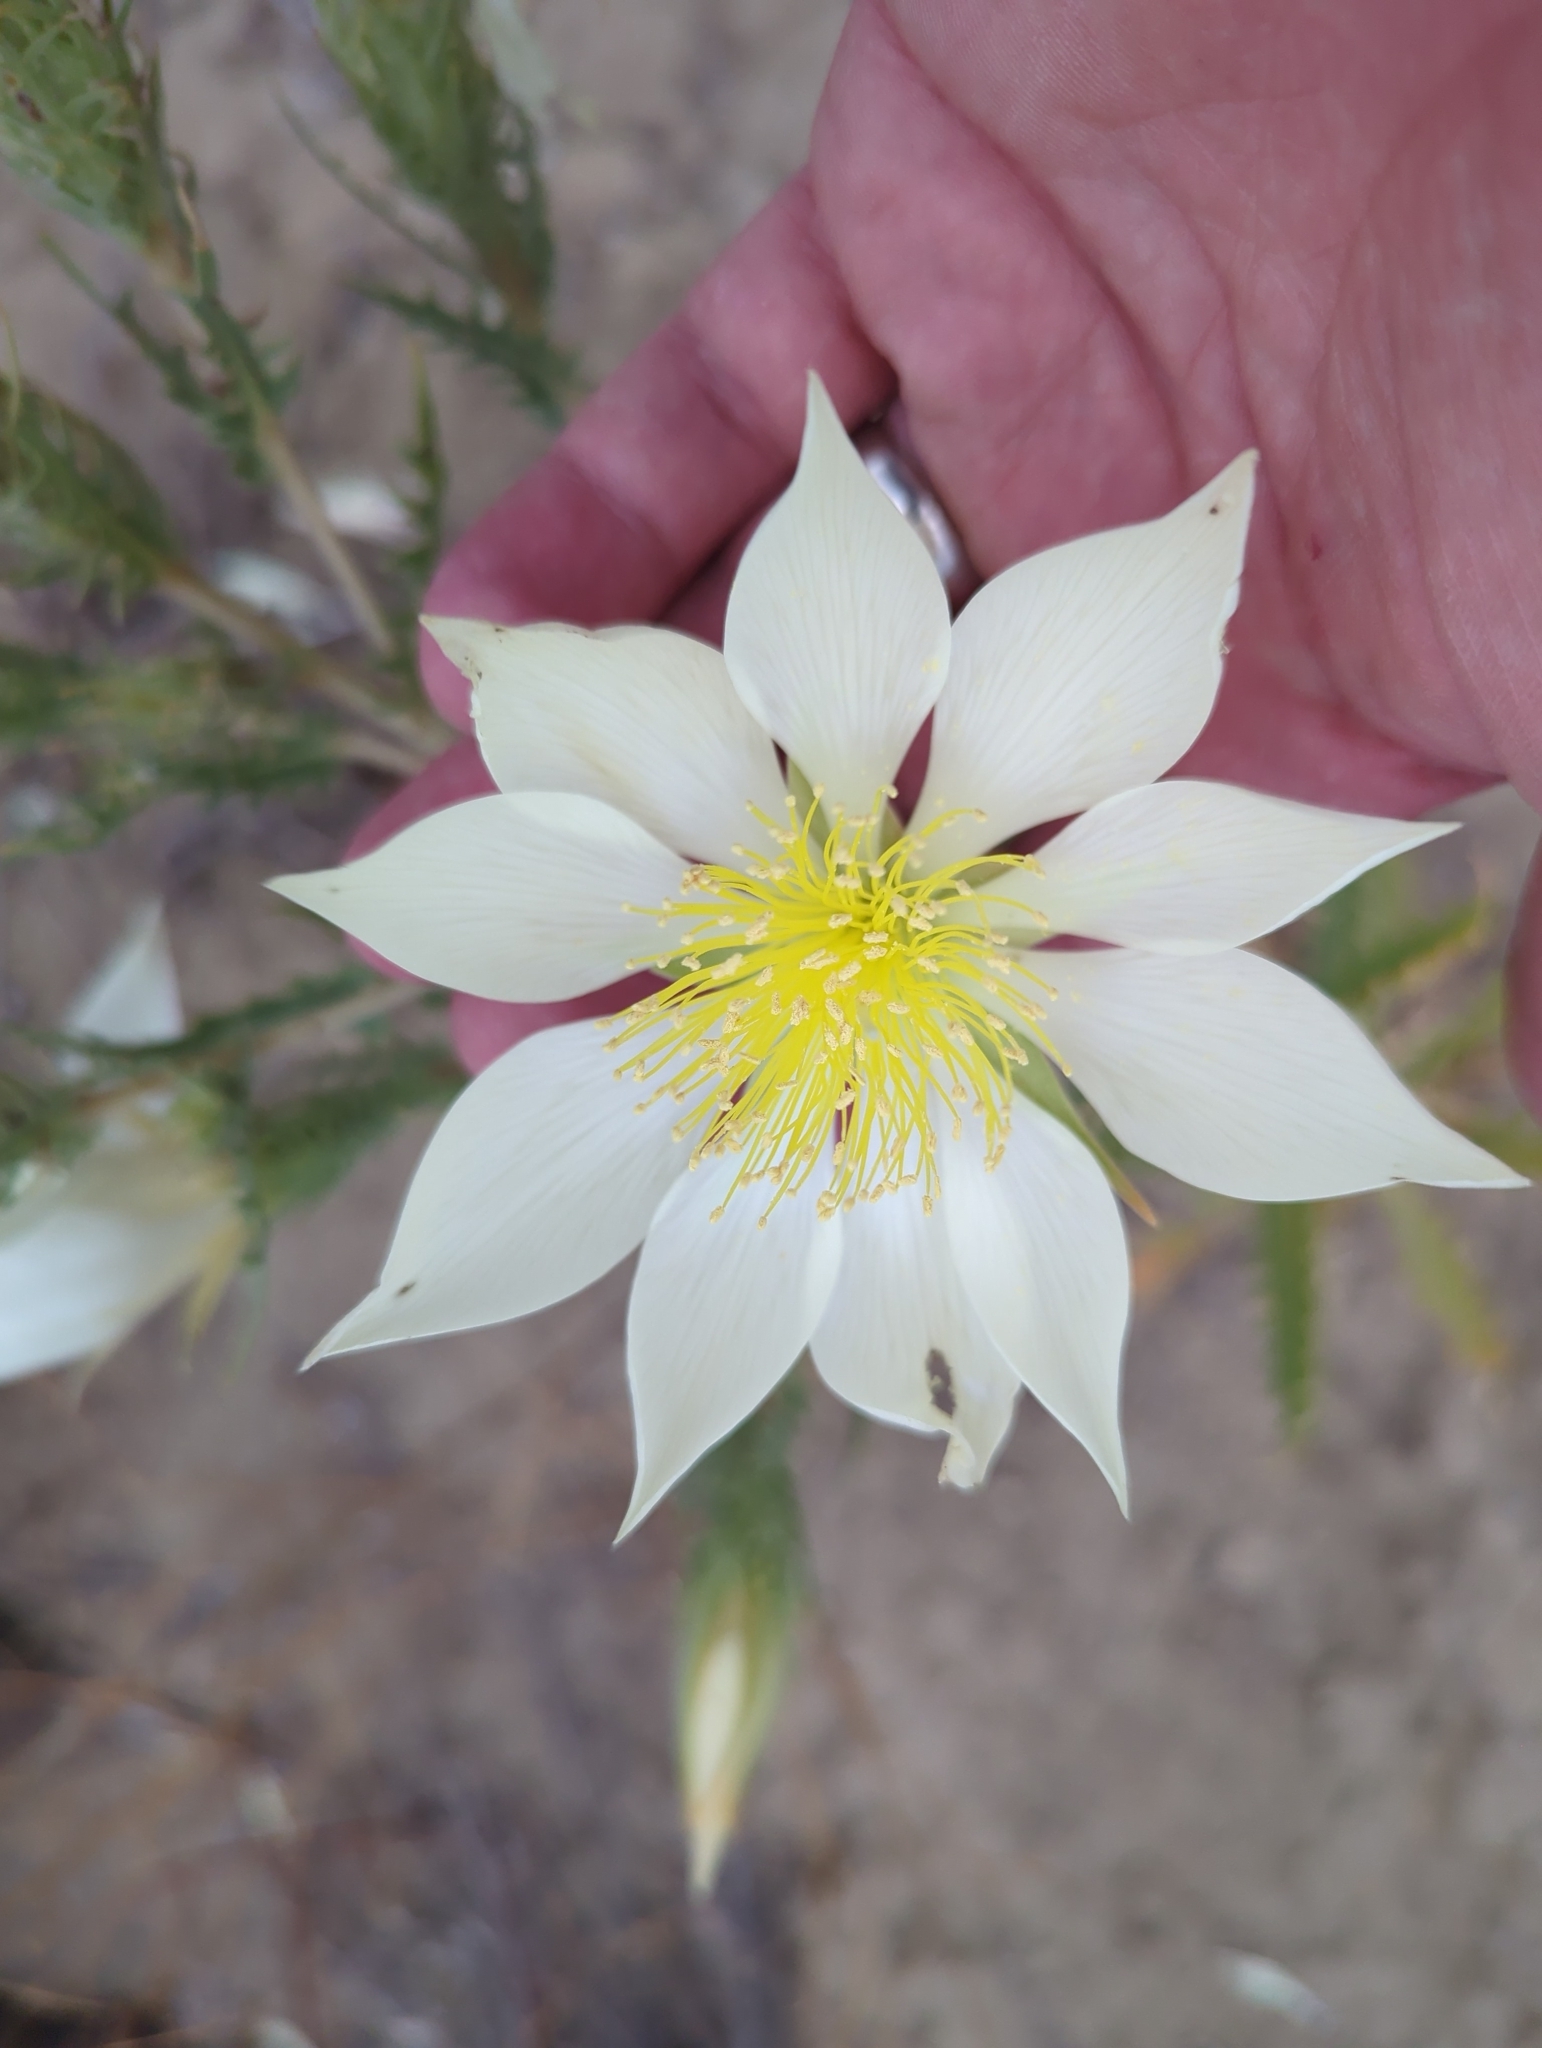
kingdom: Plantae
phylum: Tracheophyta
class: Magnoliopsida
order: Cornales
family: Loasaceae
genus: Mentzelia
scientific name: Mentzelia decapetala
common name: Gumbo-lily
